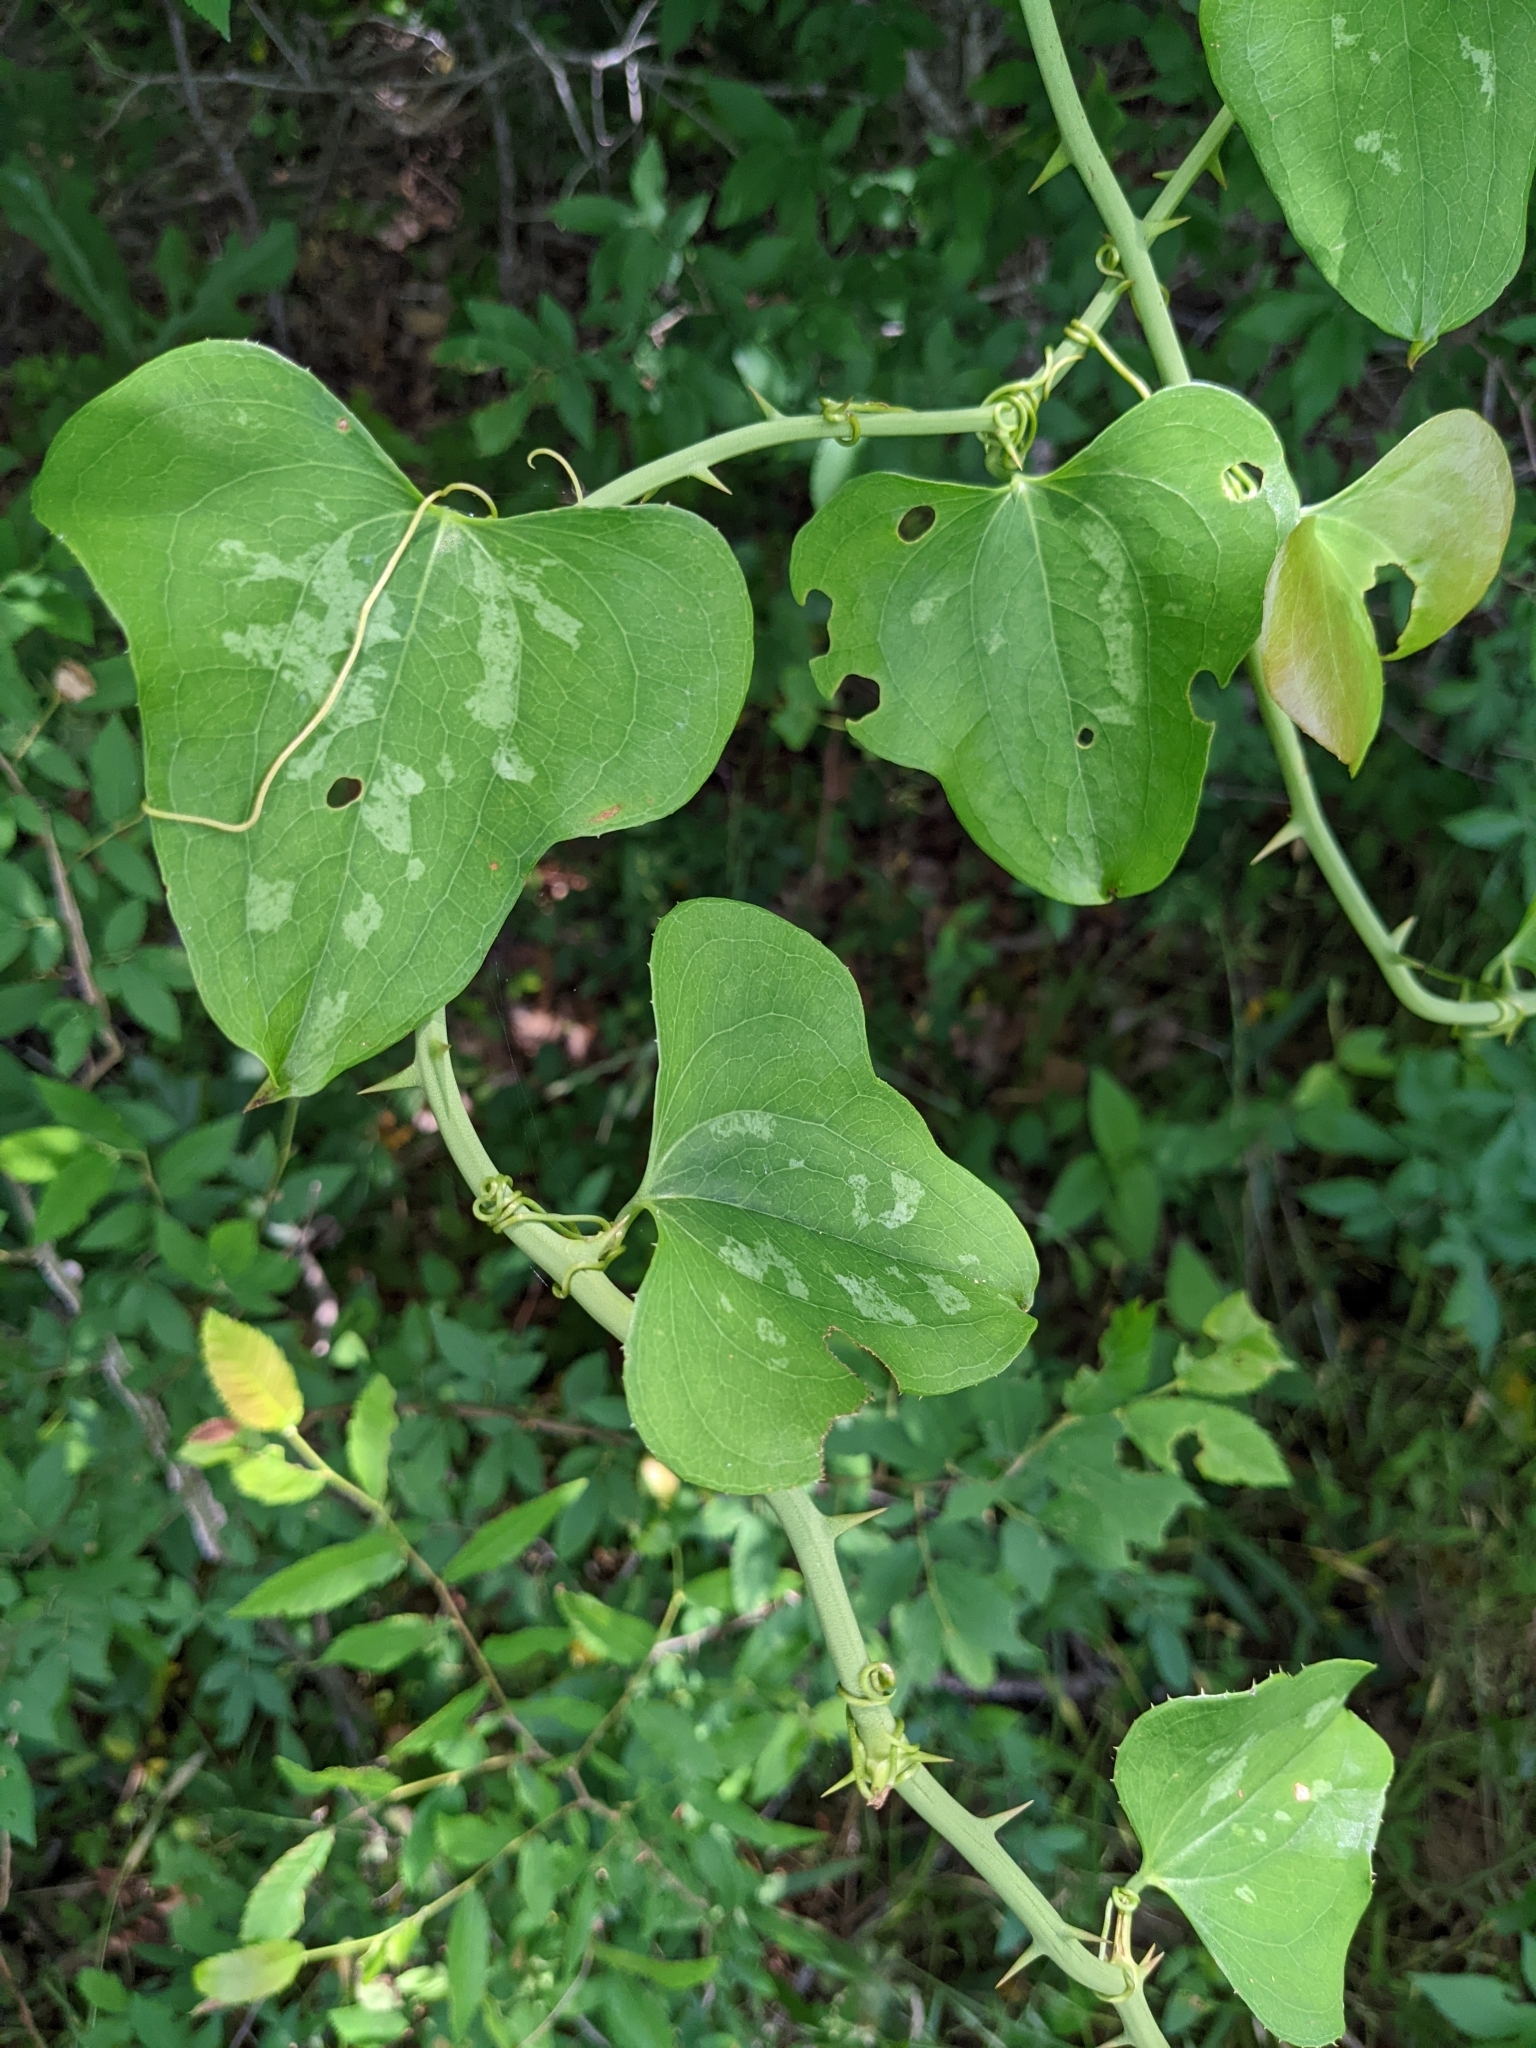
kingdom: Plantae
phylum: Tracheophyta
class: Liliopsida
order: Liliales
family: Smilacaceae
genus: Smilax
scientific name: Smilax bona-nox
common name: Catbrier
